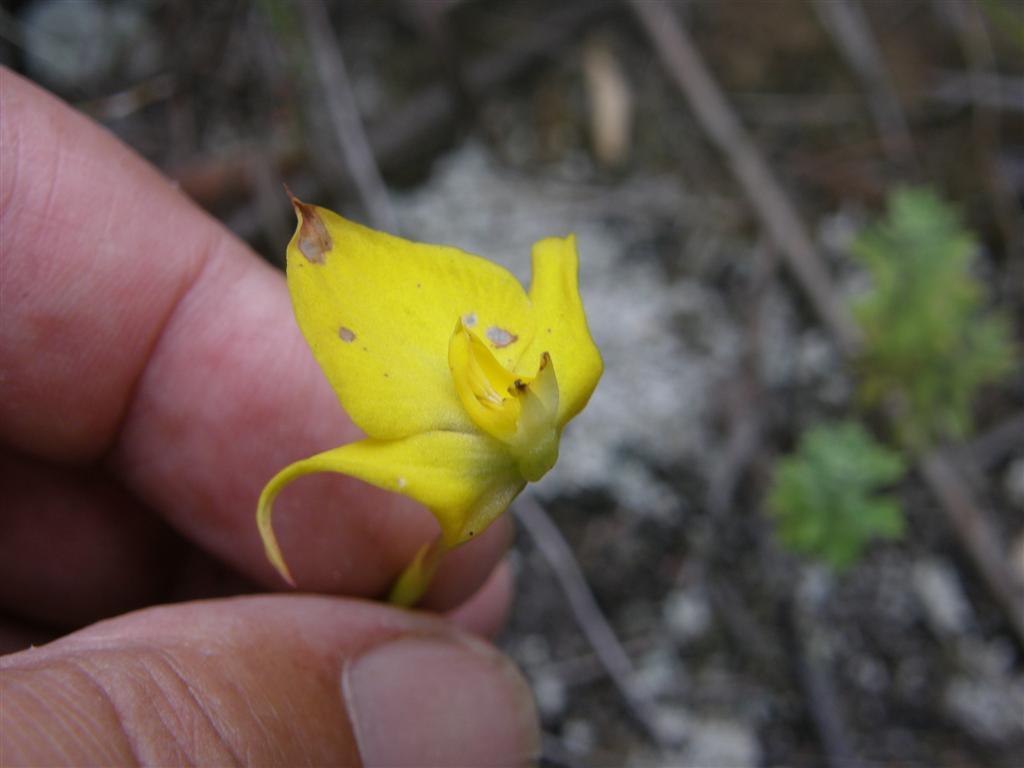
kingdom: Plantae
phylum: Tracheophyta
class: Liliopsida
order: Asparagales
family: Orchidaceae
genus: Disa
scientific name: Disa tenuifolia
